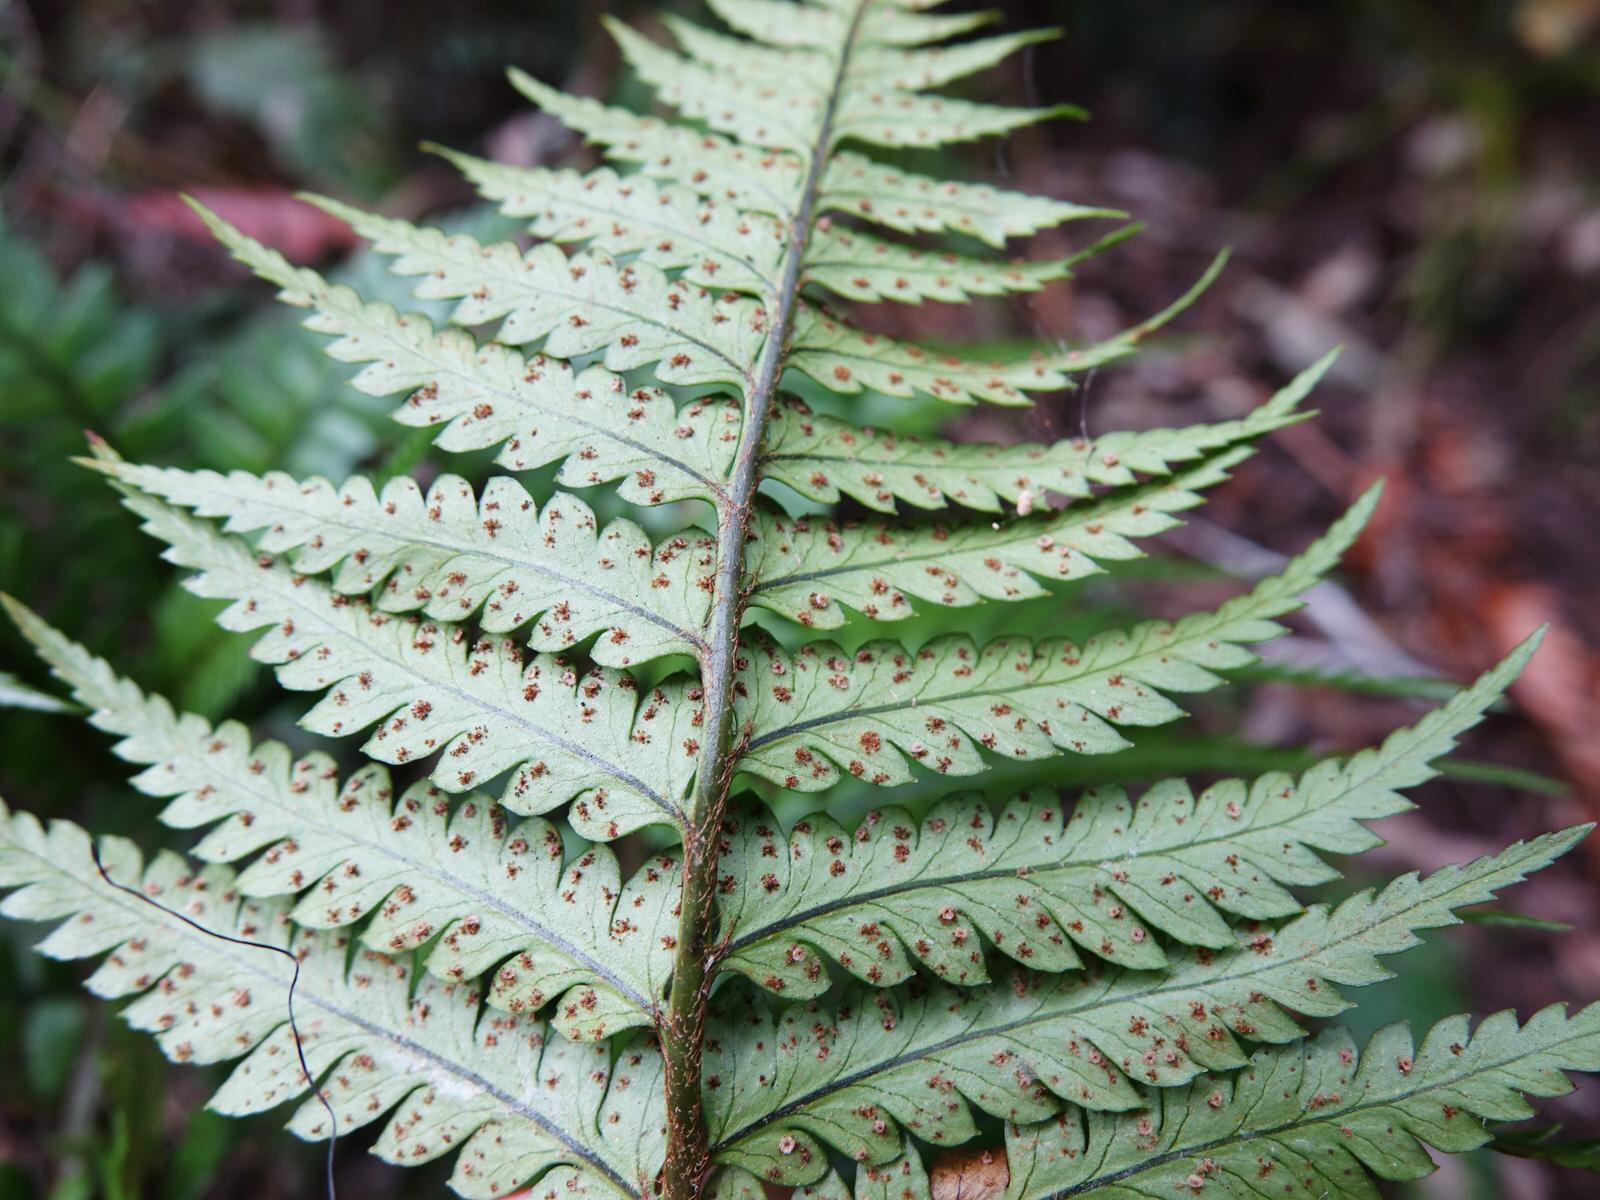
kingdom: Plantae
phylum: Tracheophyta
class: Polypodiopsida
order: Polypodiales
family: Dryopteridaceae
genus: Polystichum
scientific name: Polystichum wawranum
